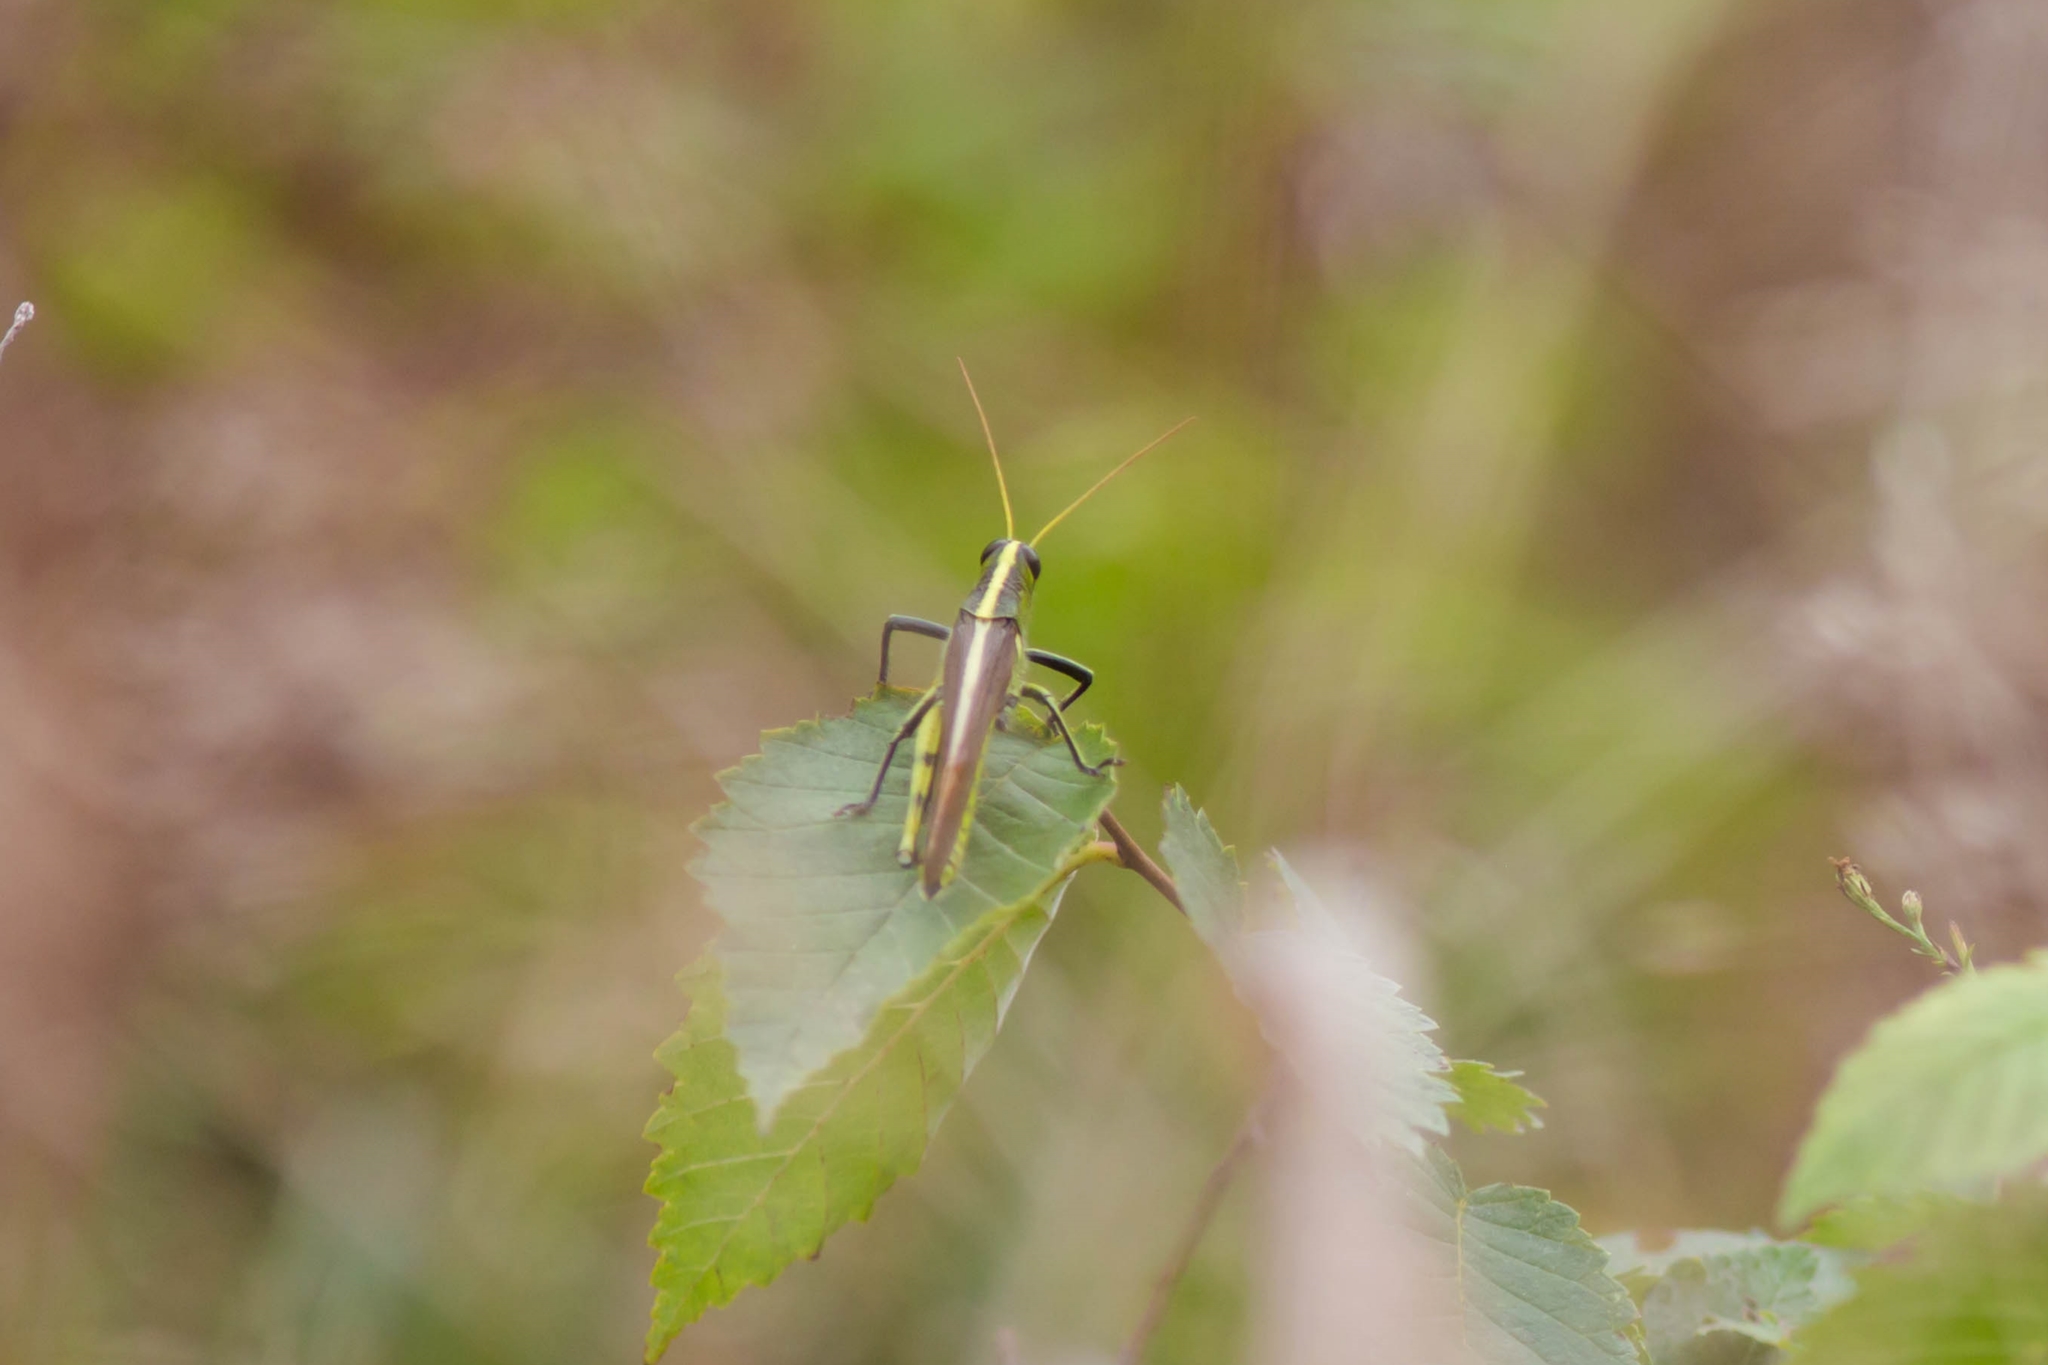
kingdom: Animalia
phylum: Arthropoda
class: Insecta
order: Orthoptera
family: Acrididae
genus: Schistocerca
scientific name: Schistocerca obscura
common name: Obscure bird grasshopper
